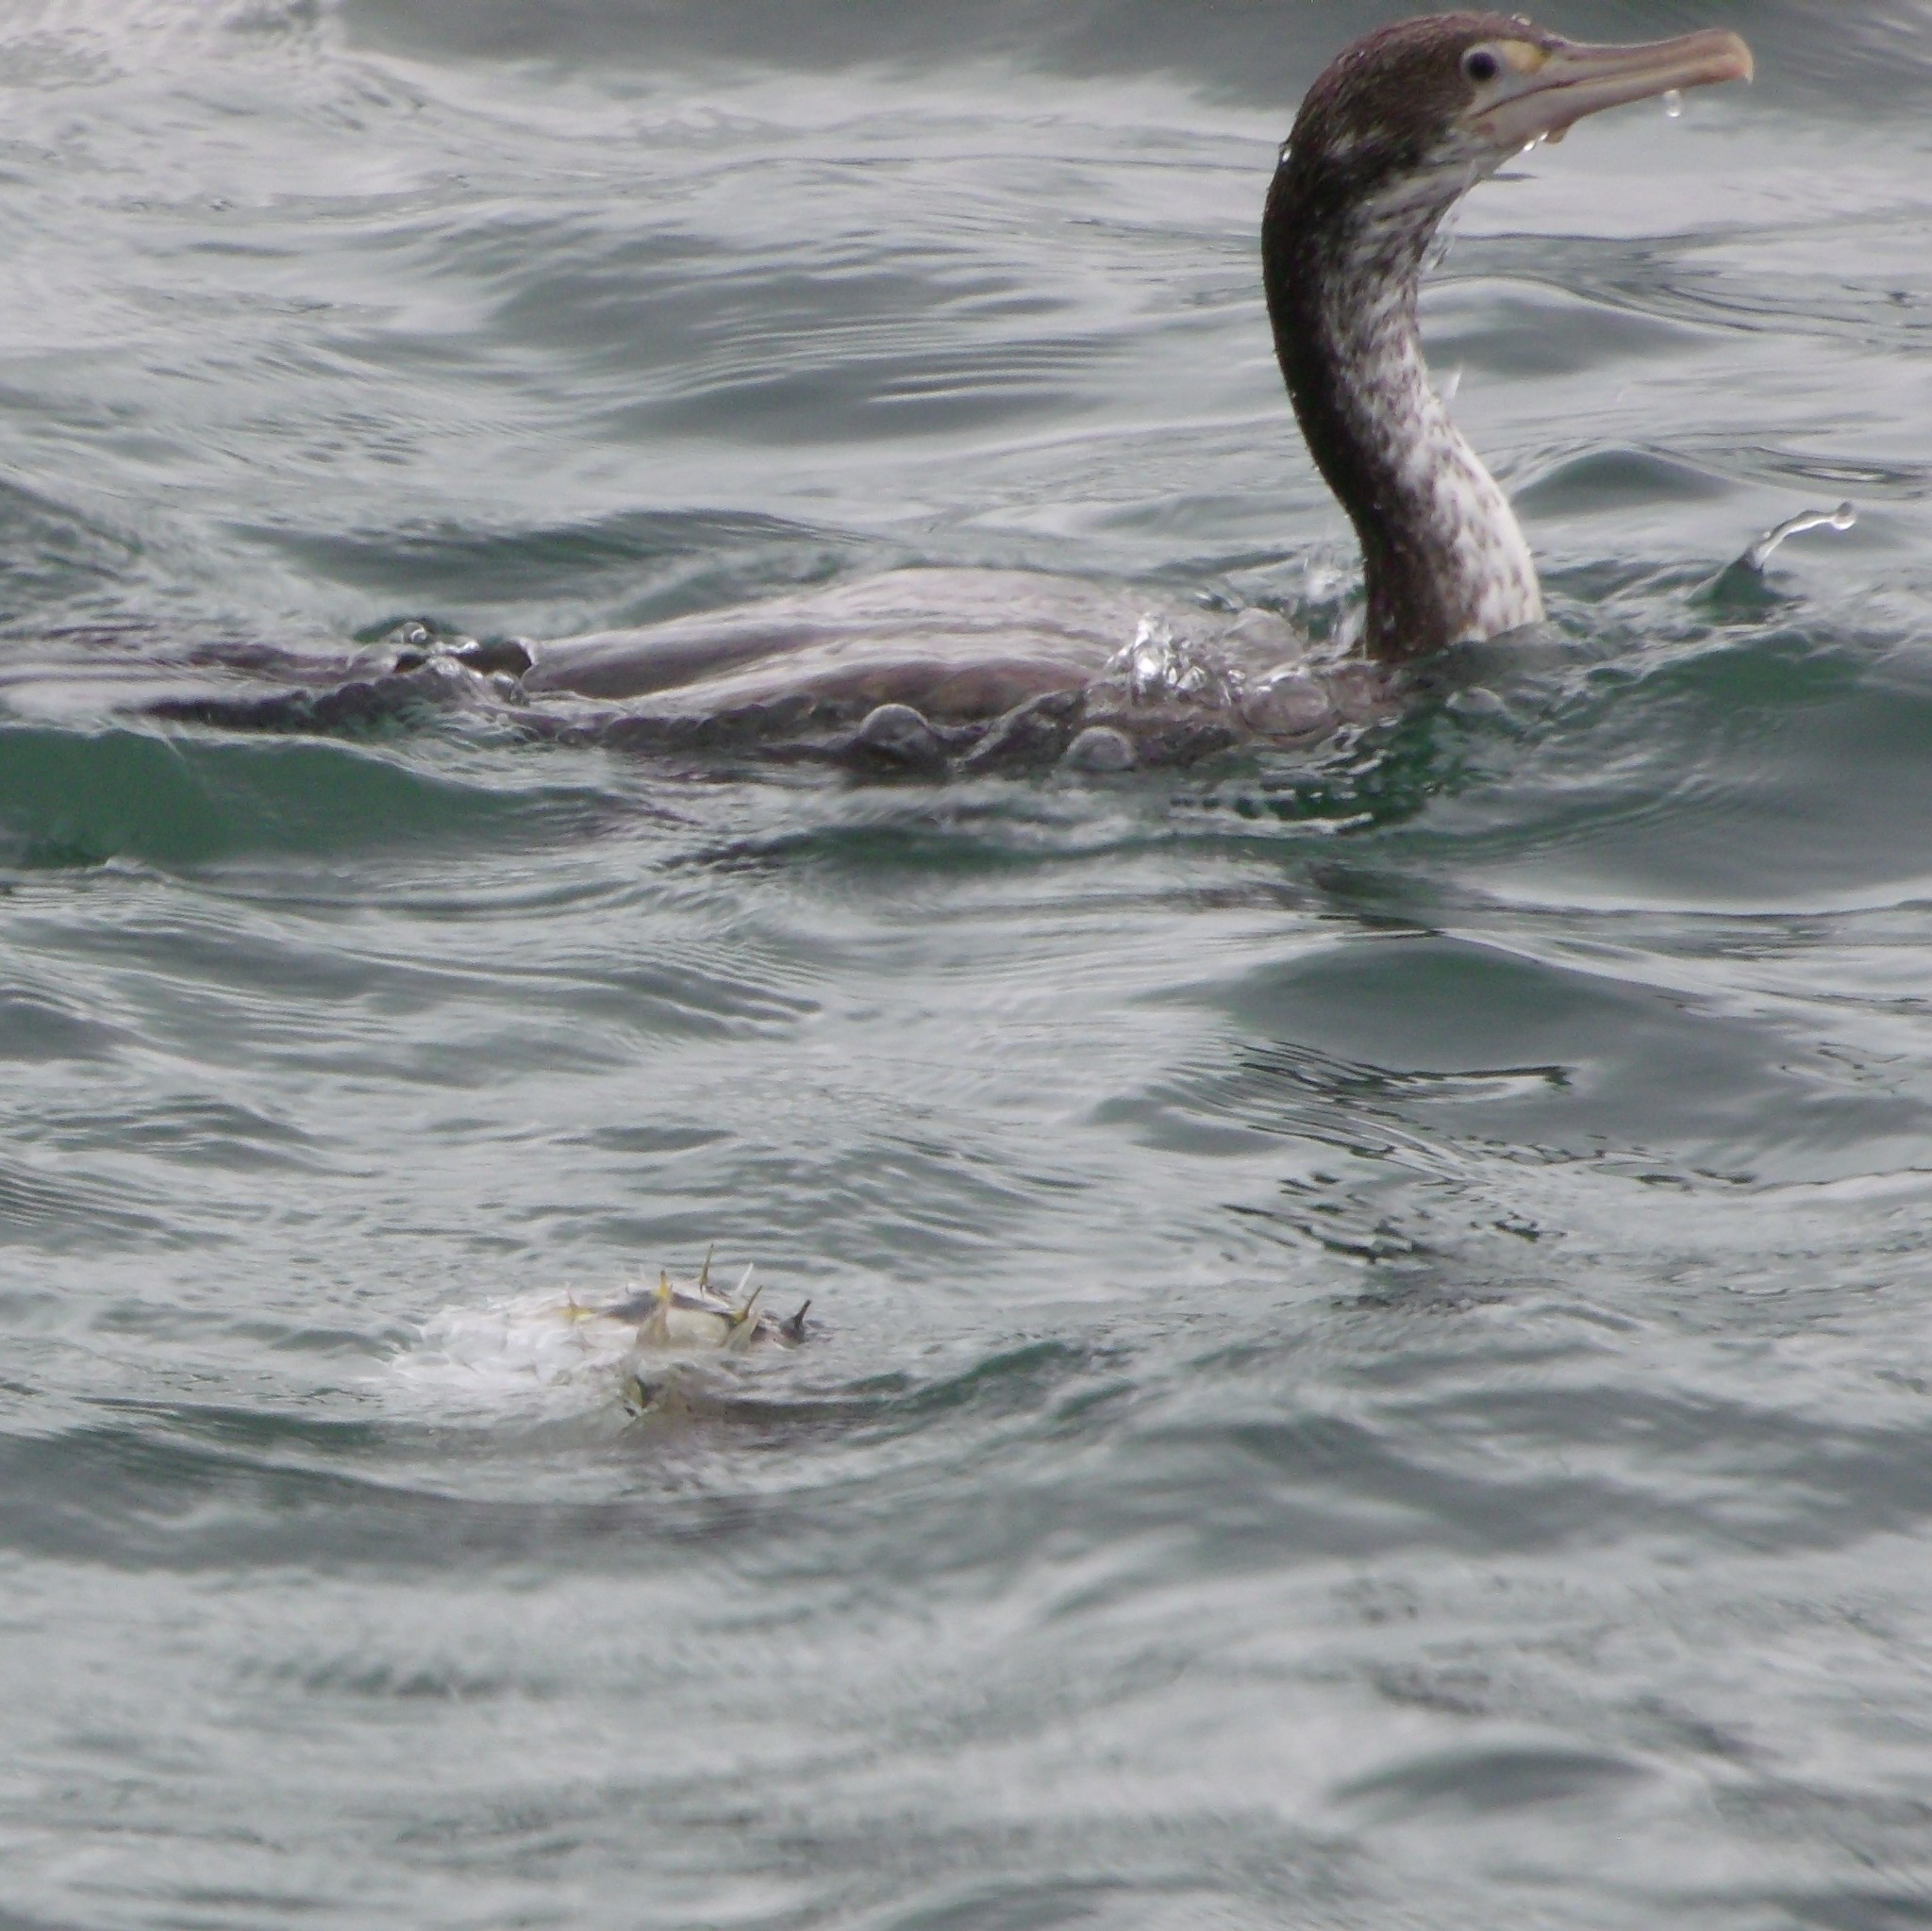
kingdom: Animalia
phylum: Chordata
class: Aves
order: Suliformes
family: Phalacrocoracidae
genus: Phalacrocorax
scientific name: Phalacrocorax varius
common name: Pied cormorant
